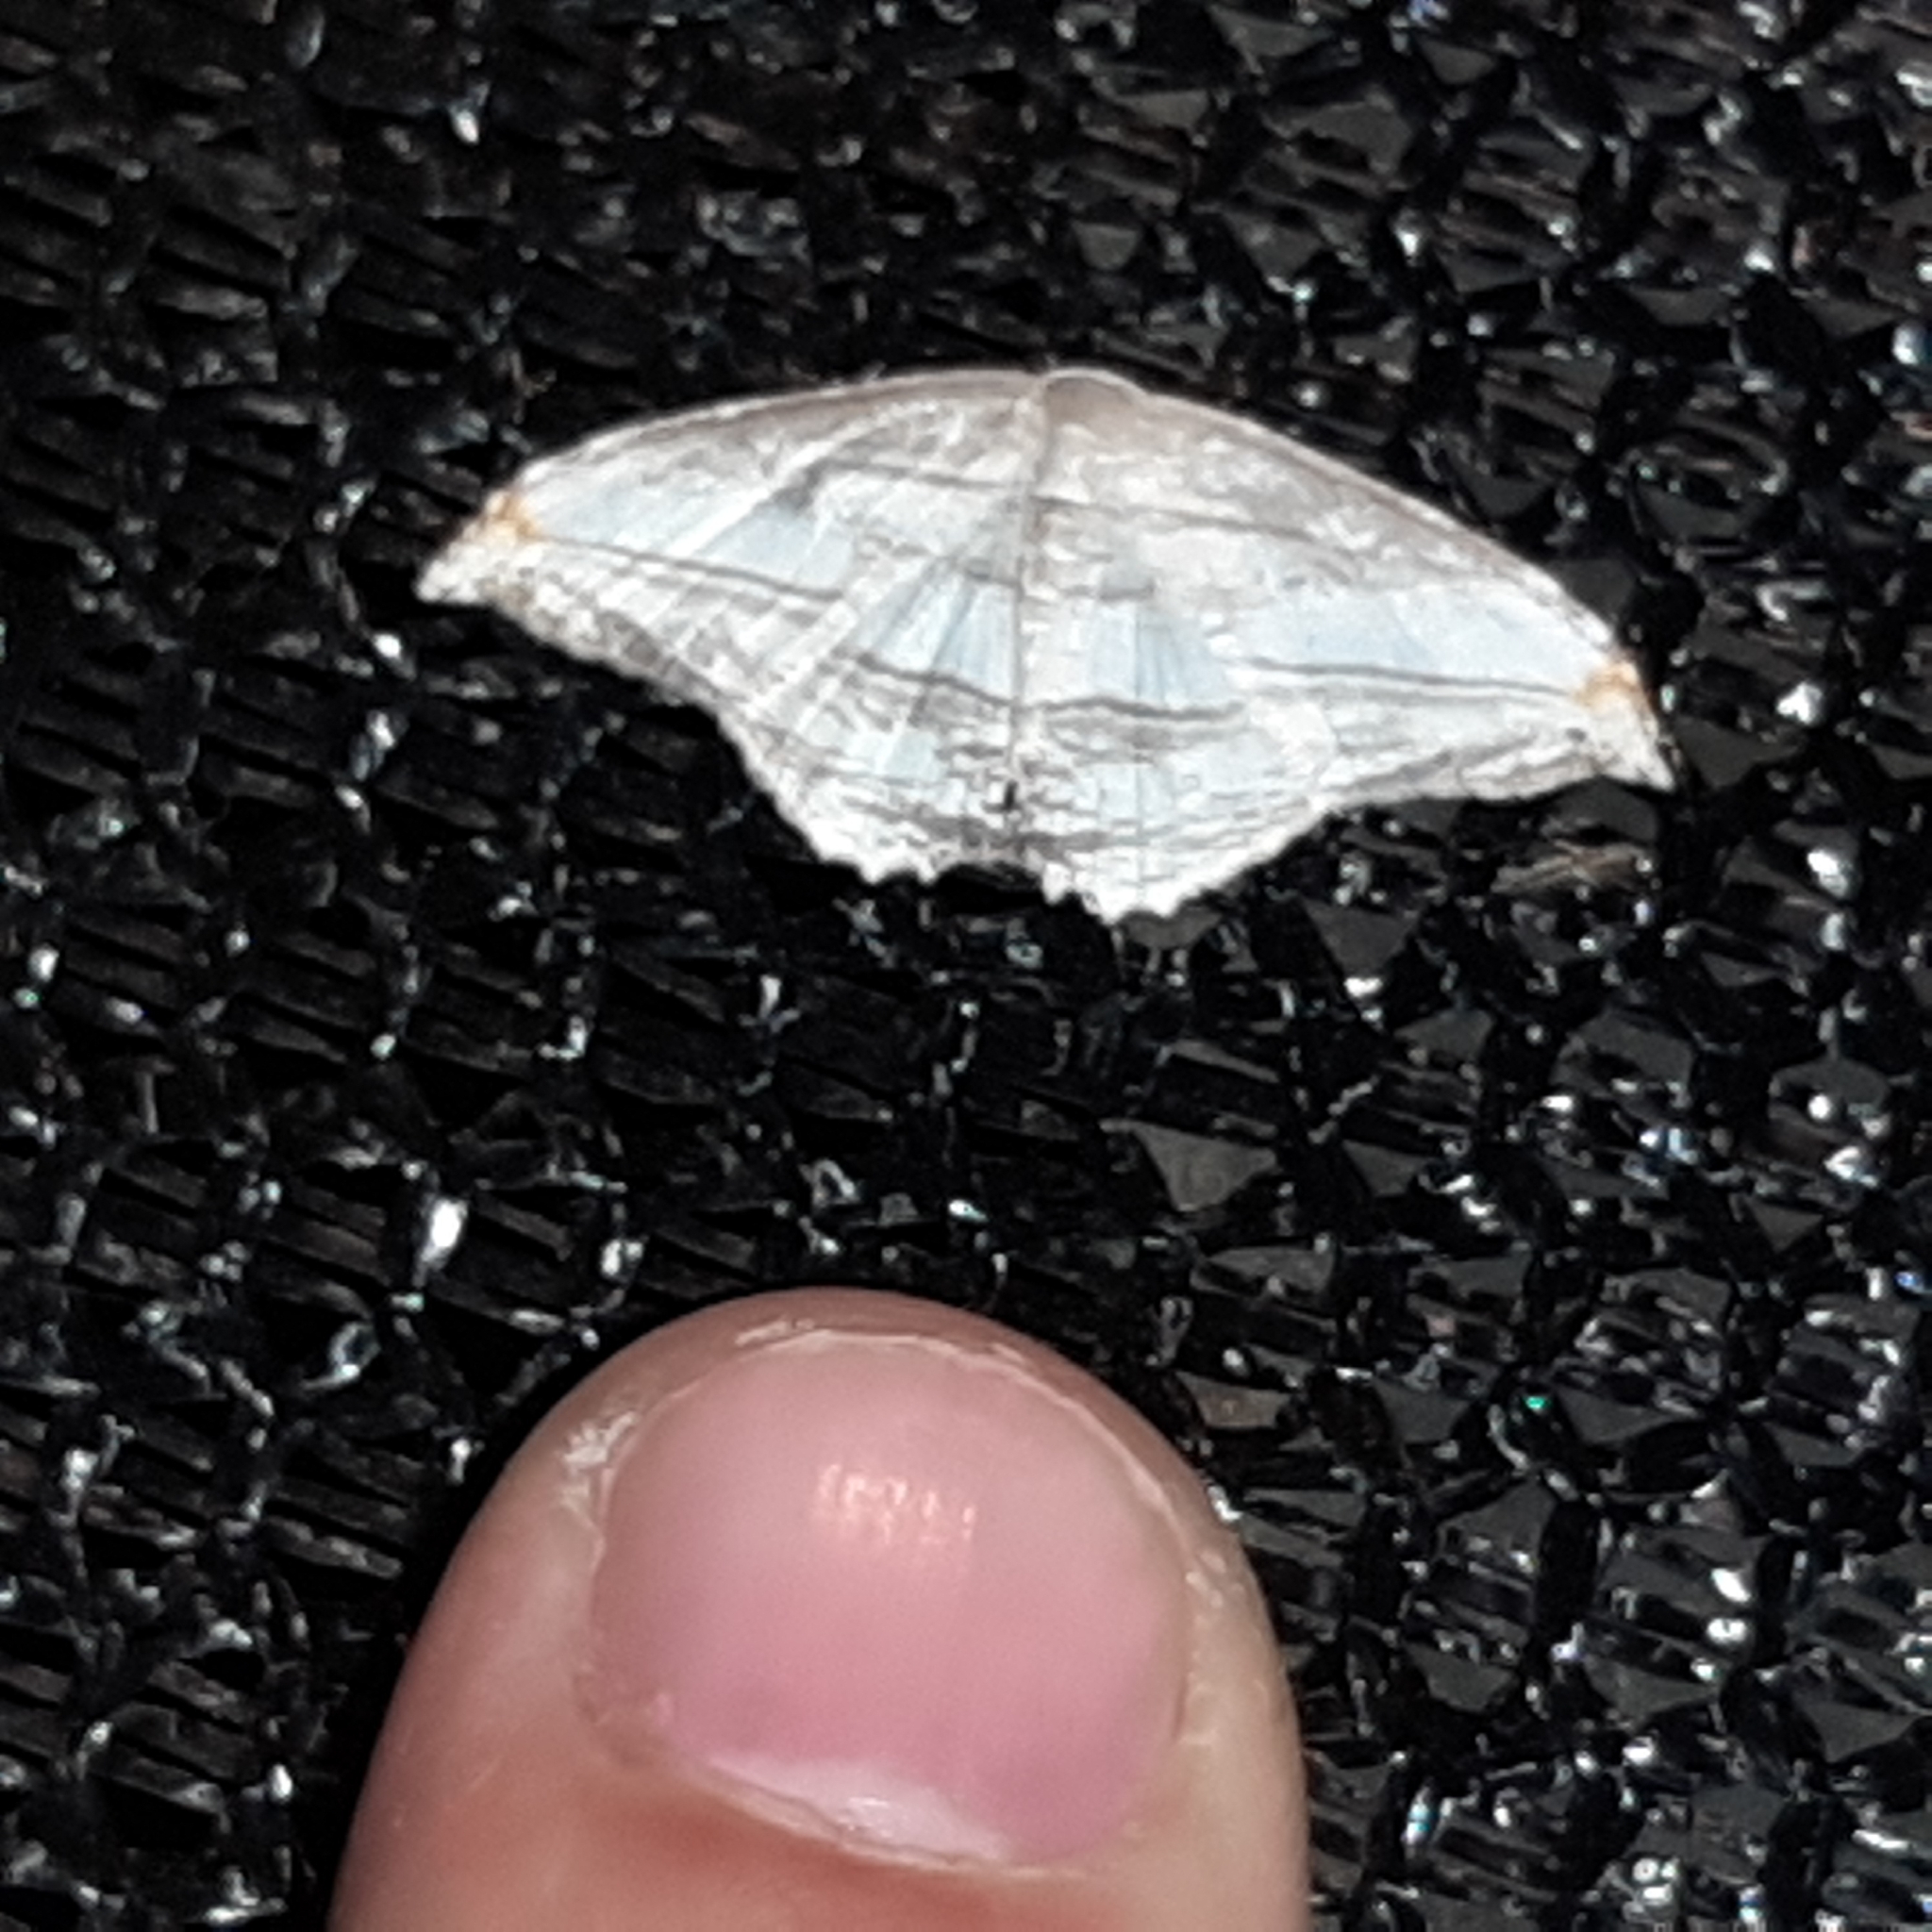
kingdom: Animalia
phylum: Arthropoda
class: Insecta
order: Lepidoptera
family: Uraniidae
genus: Morphomima
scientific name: Morphomima fulvitacta
